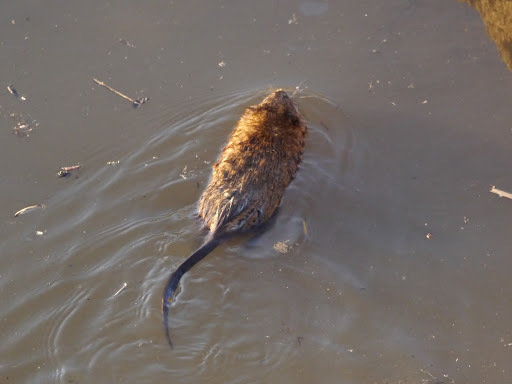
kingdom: Animalia
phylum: Chordata
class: Mammalia
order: Rodentia
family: Cricetidae
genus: Ondatra
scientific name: Ondatra zibethicus
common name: Muskrat
